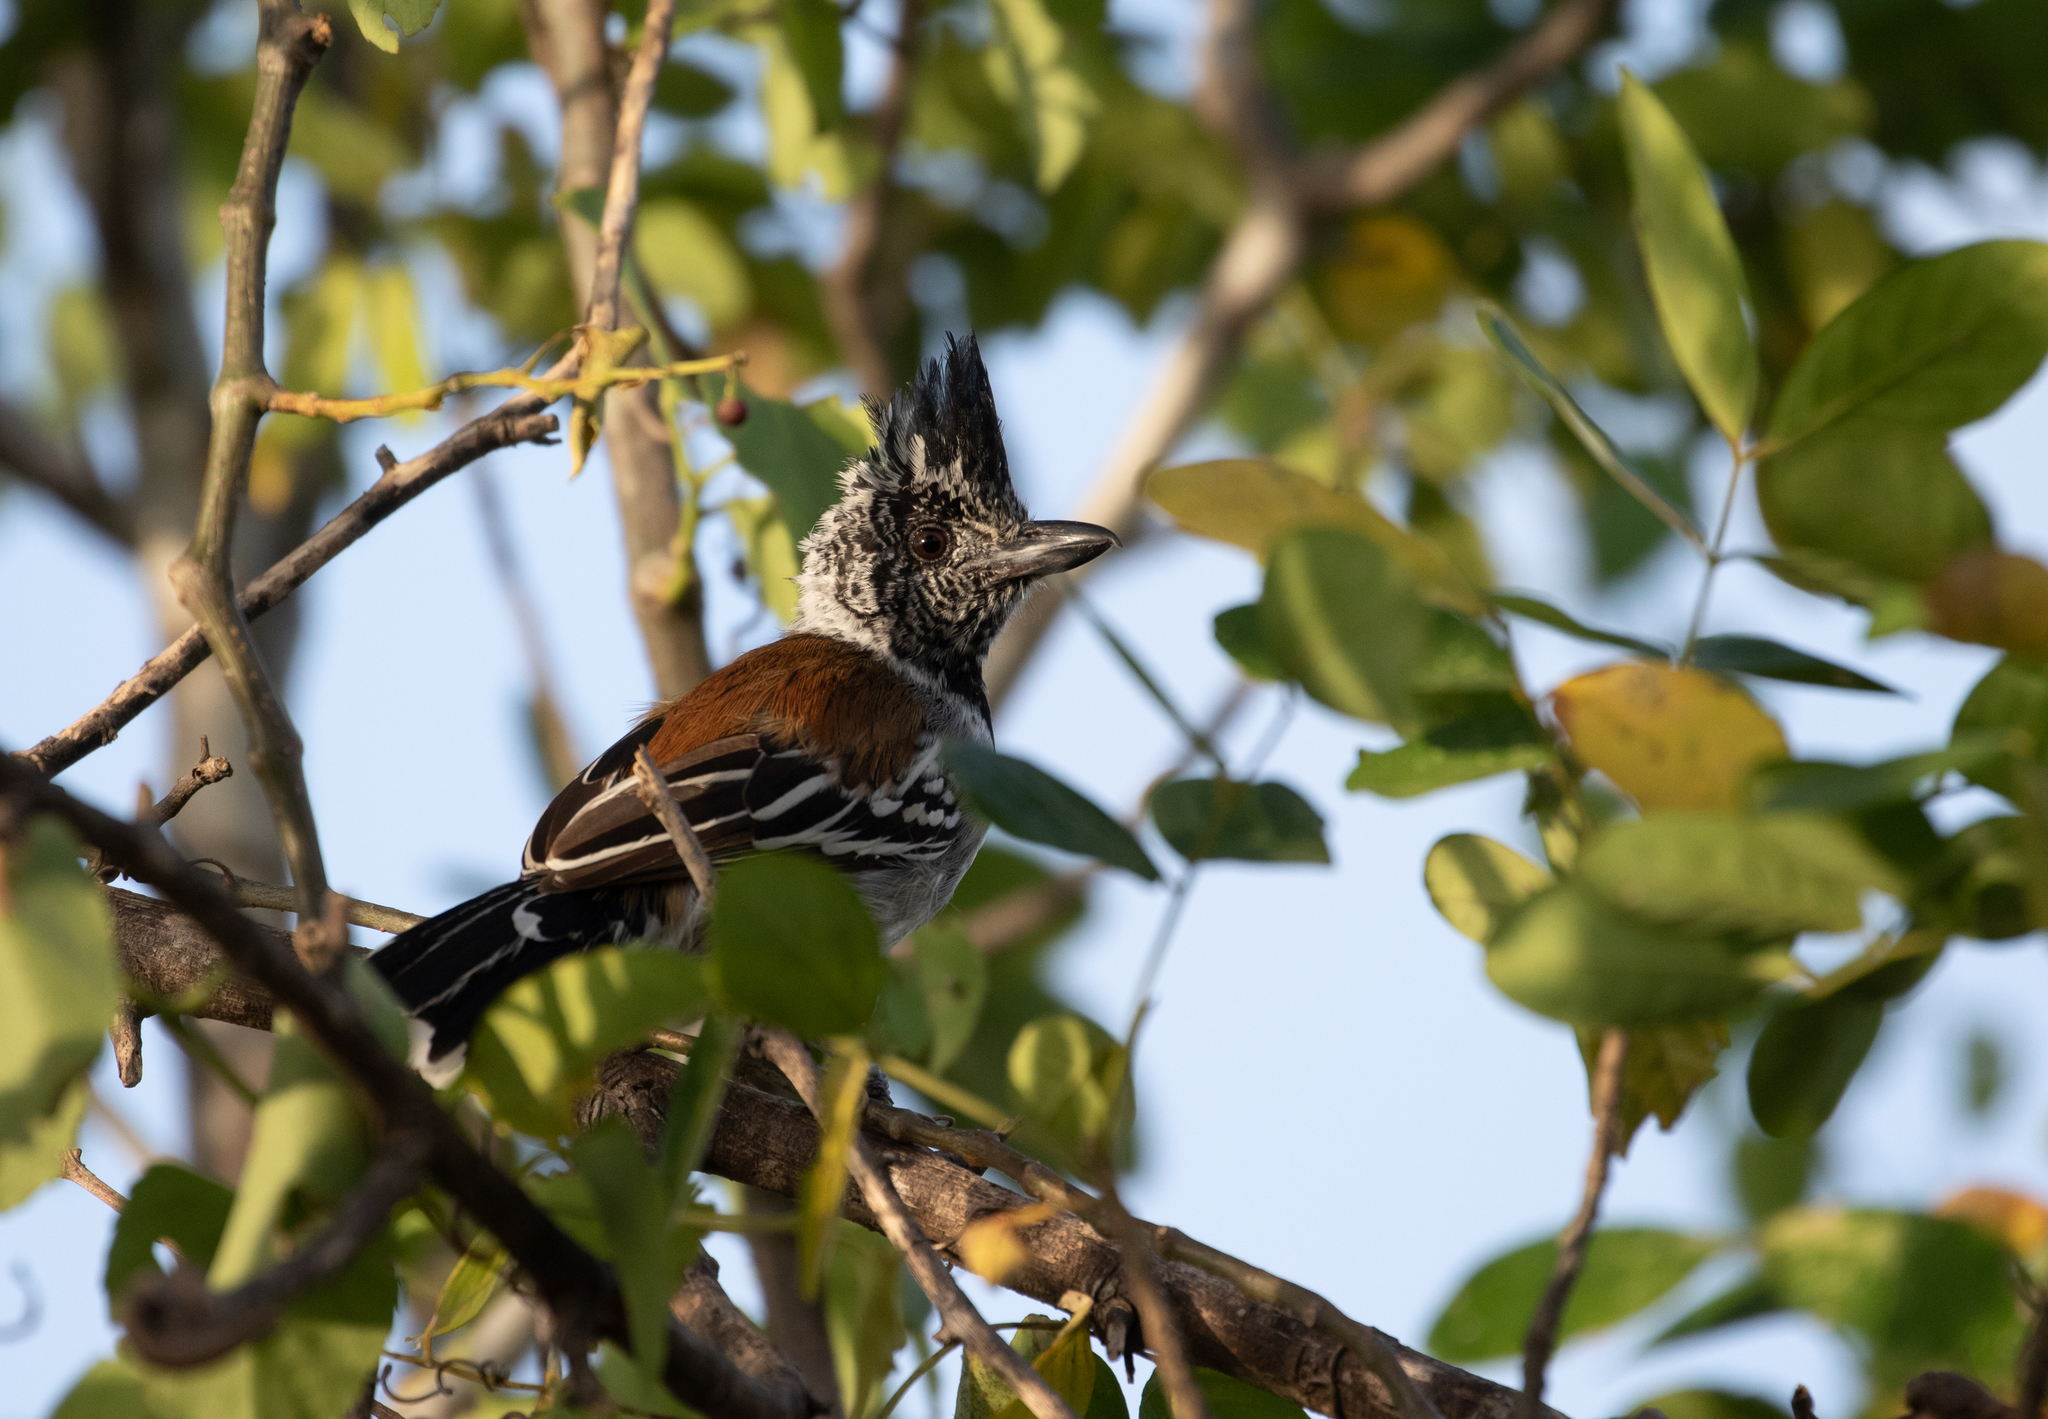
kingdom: Animalia
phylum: Chordata
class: Aves
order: Passeriformes
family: Thamnophilidae
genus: Sakesphorus
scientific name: Sakesphorus canadensis
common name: Black-crested antshrike
